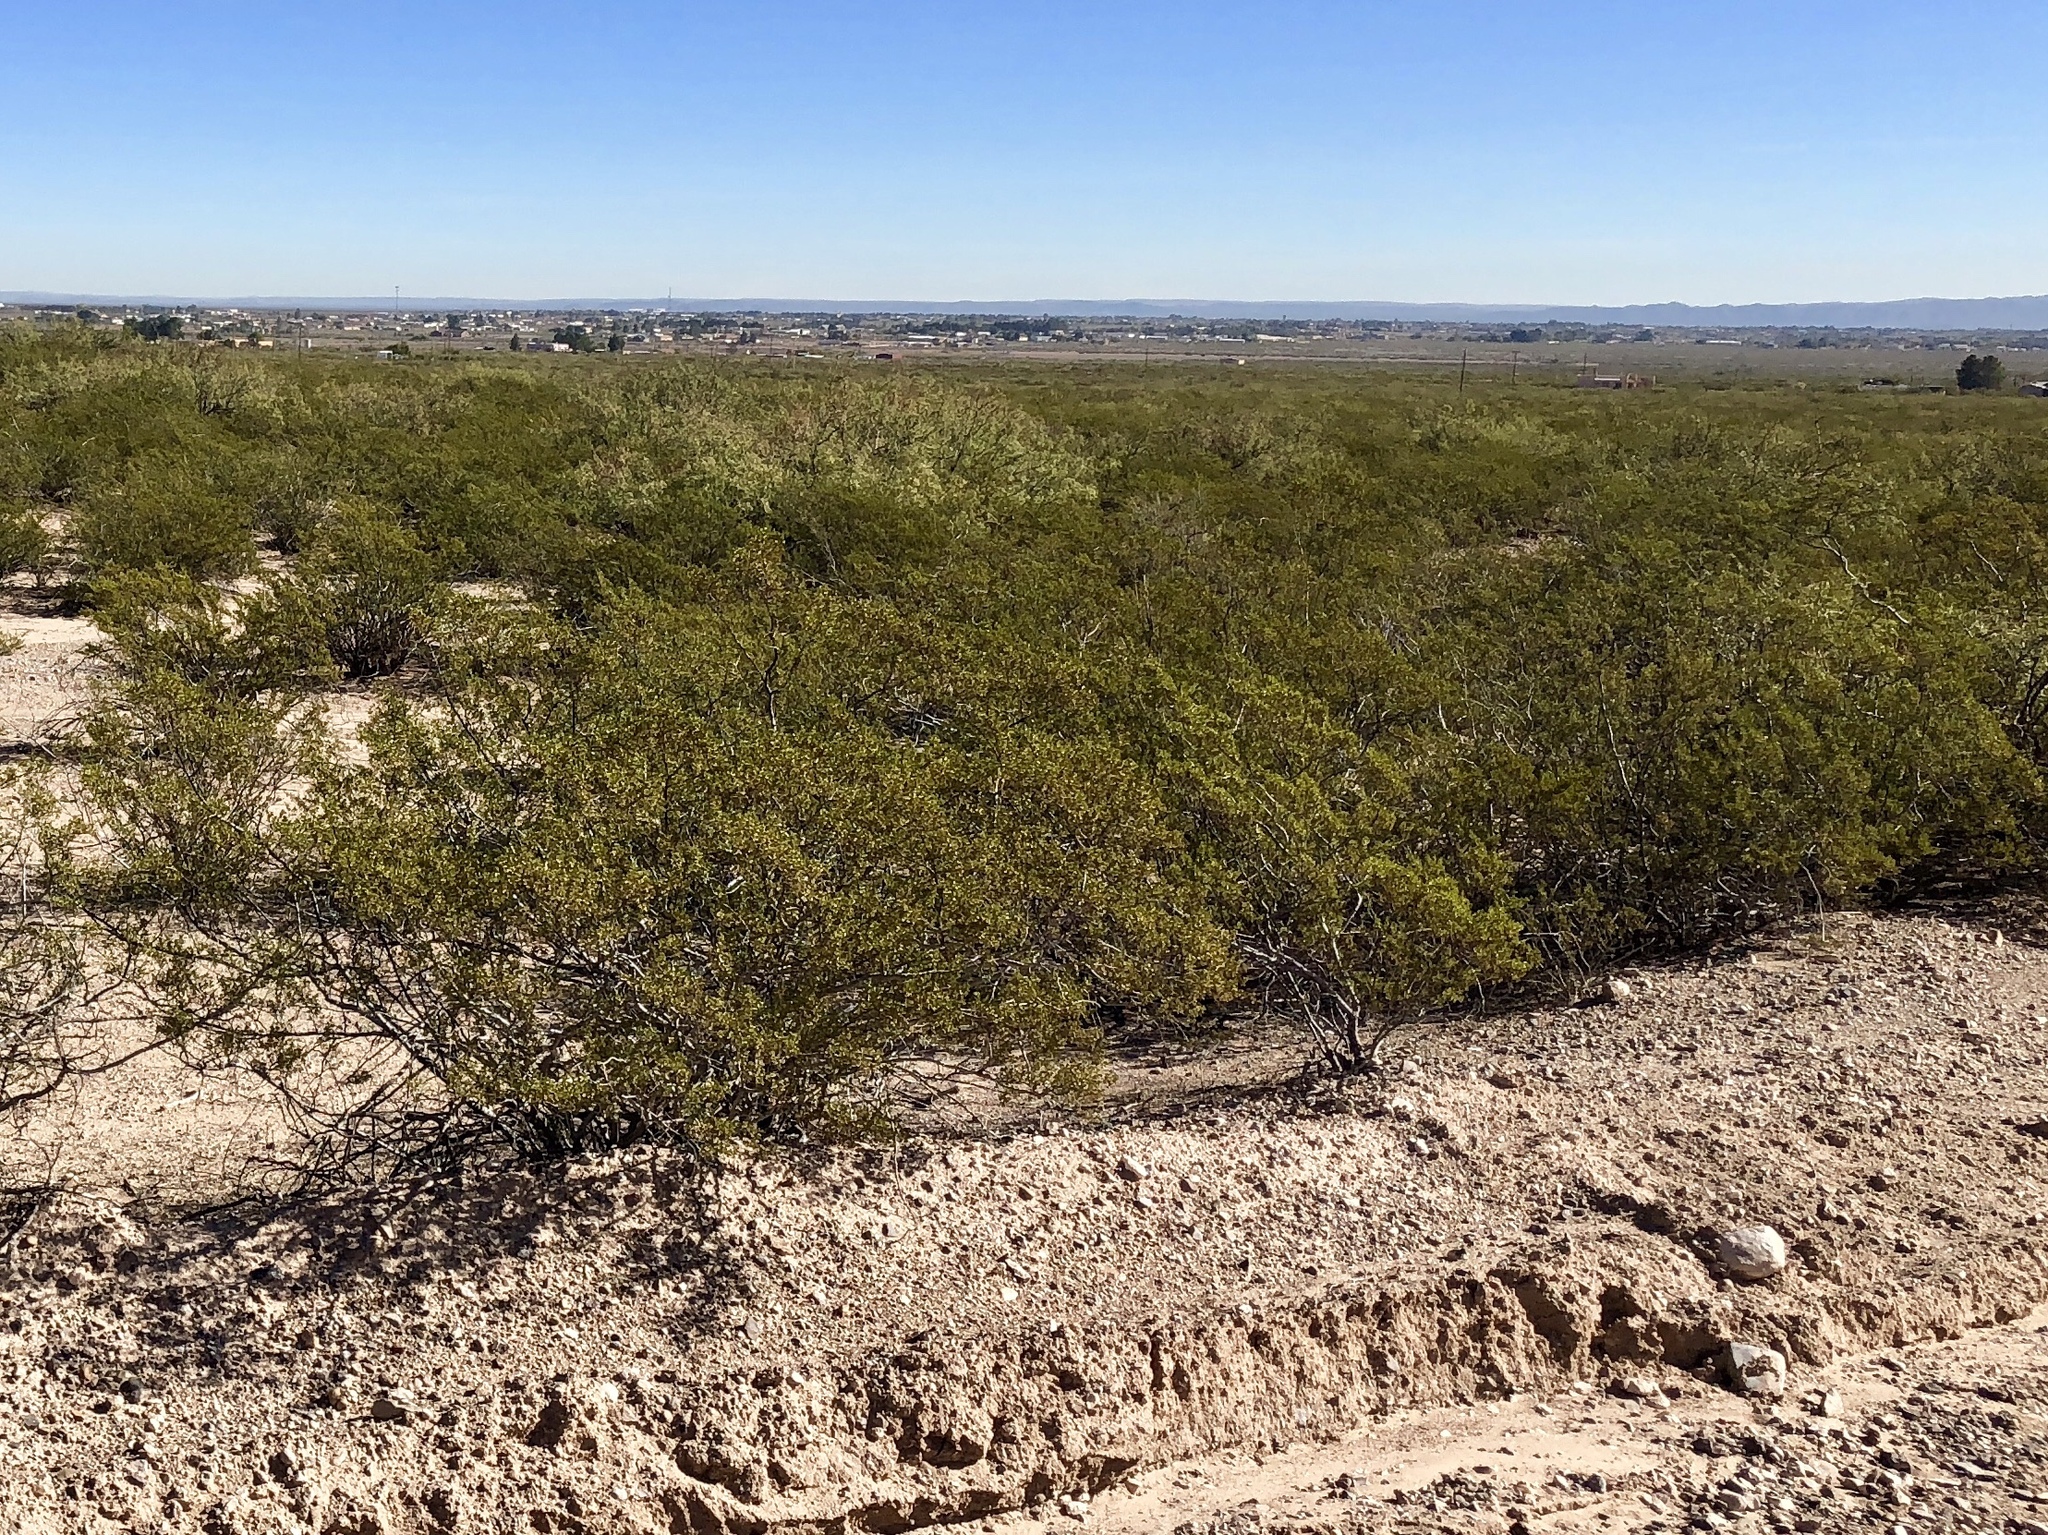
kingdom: Plantae
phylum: Tracheophyta
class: Magnoliopsida
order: Zygophyllales
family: Zygophyllaceae
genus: Larrea
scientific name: Larrea tridentata
